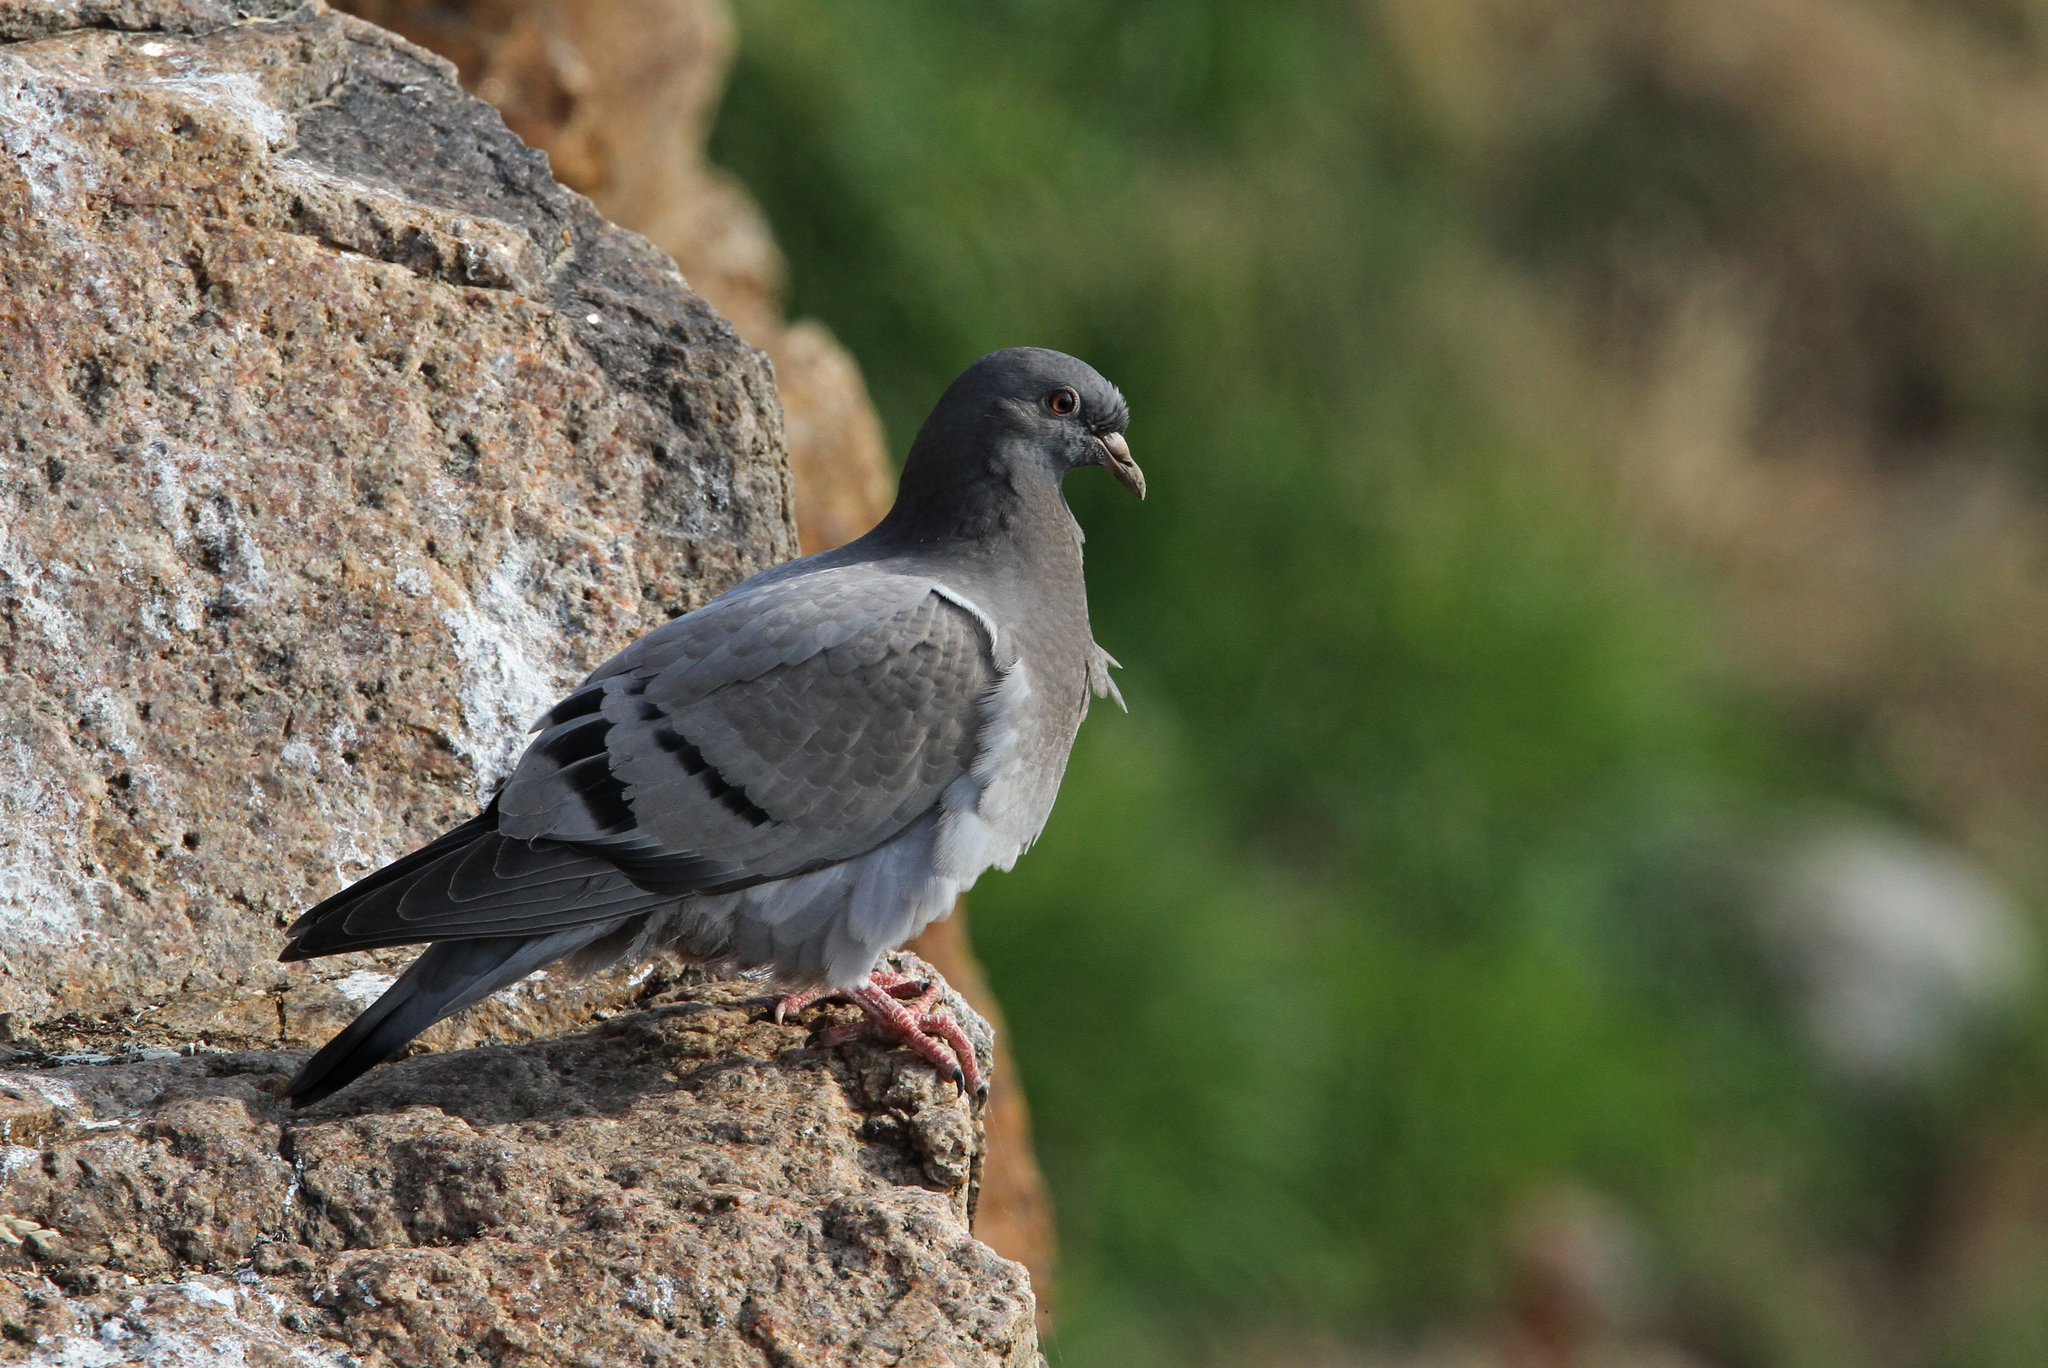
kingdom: Animalia
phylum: Chordata
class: Aves
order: Columbiformes
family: Columbidae
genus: Columba
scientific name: Columba livia
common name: Rock pigeon
